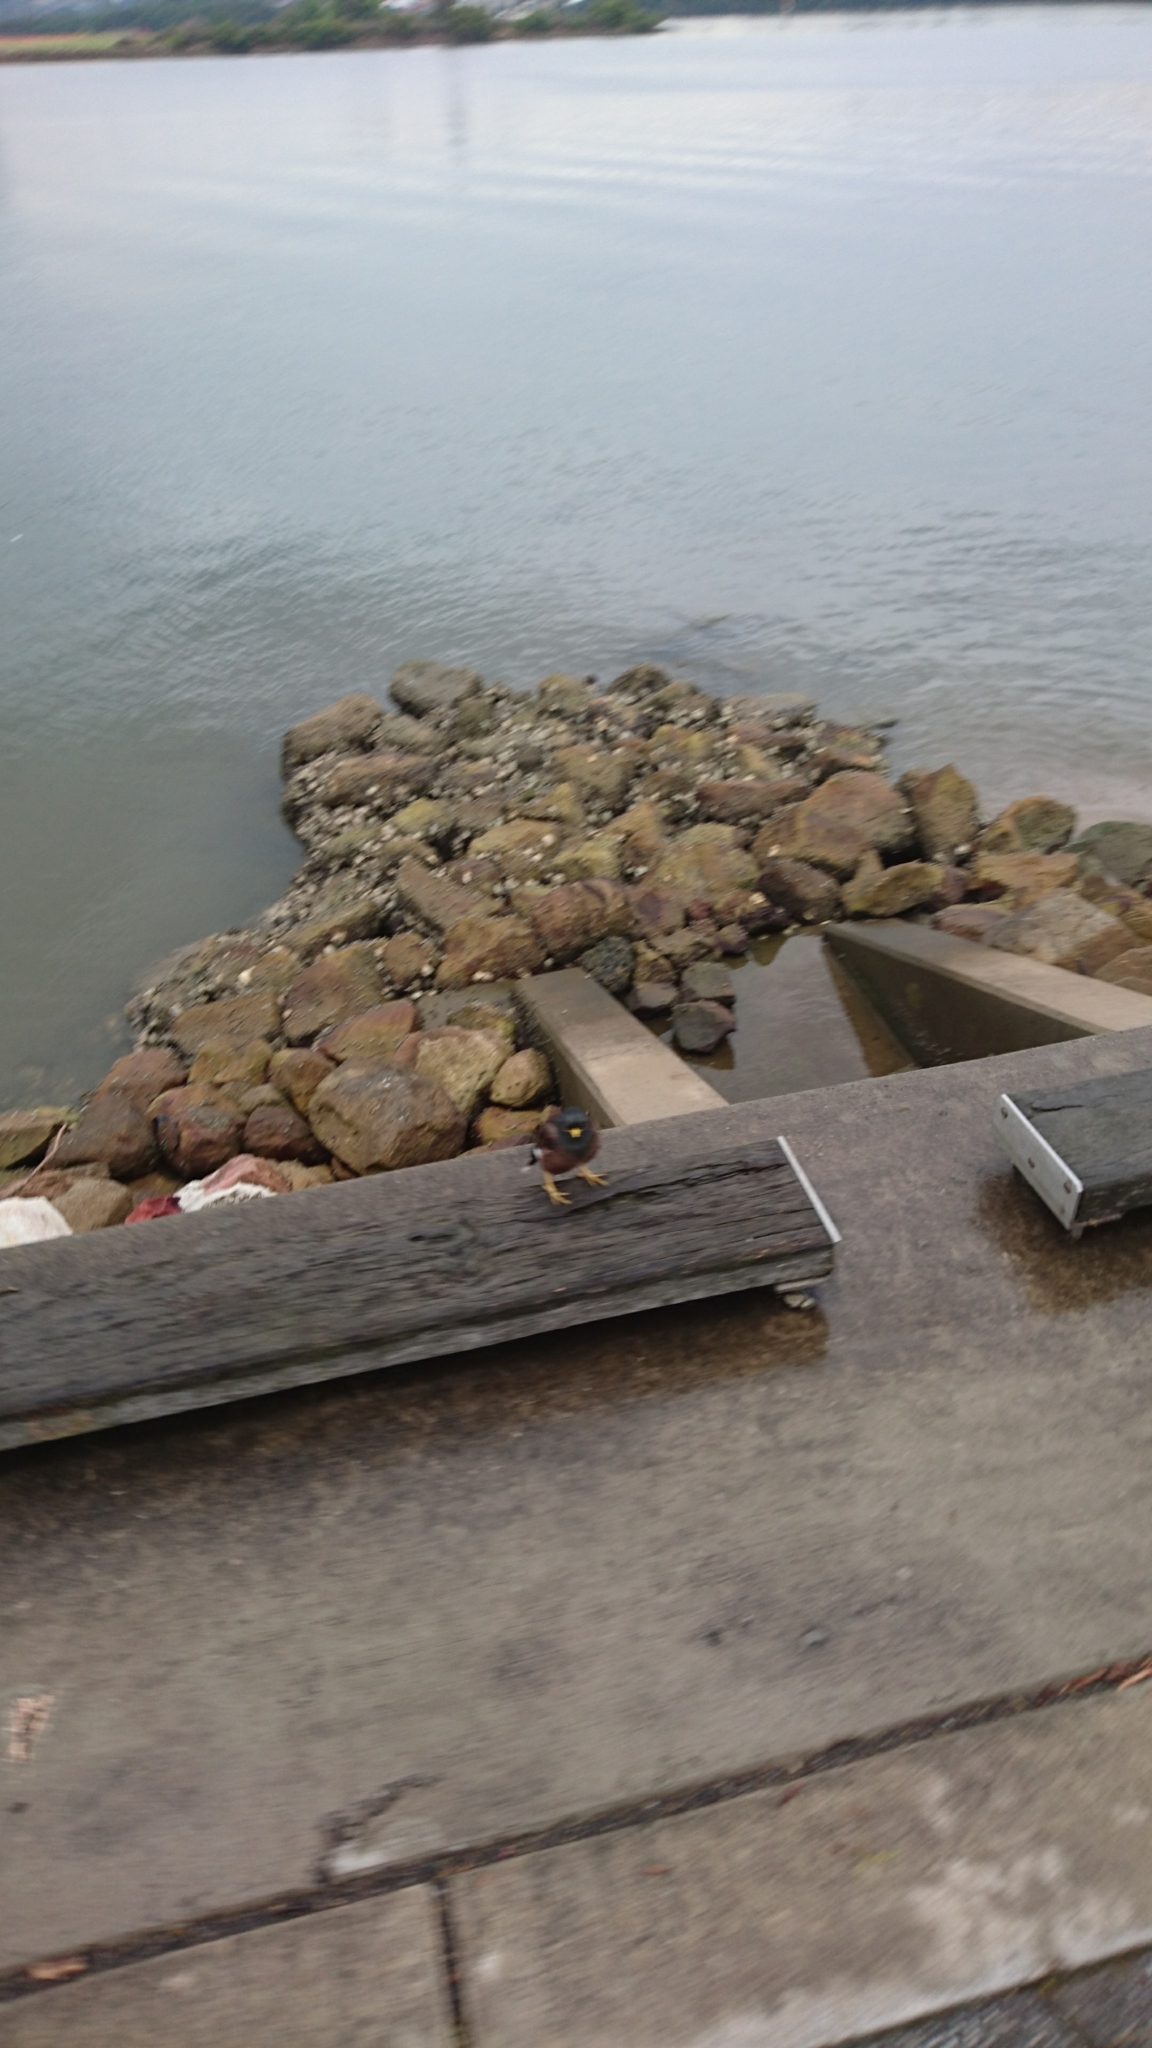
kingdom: Animalia
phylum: Chordata
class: Aves
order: Passeriformes
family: Sturnidae
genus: Acridotheres
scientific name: Acridotheres tristis
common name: Common myna
